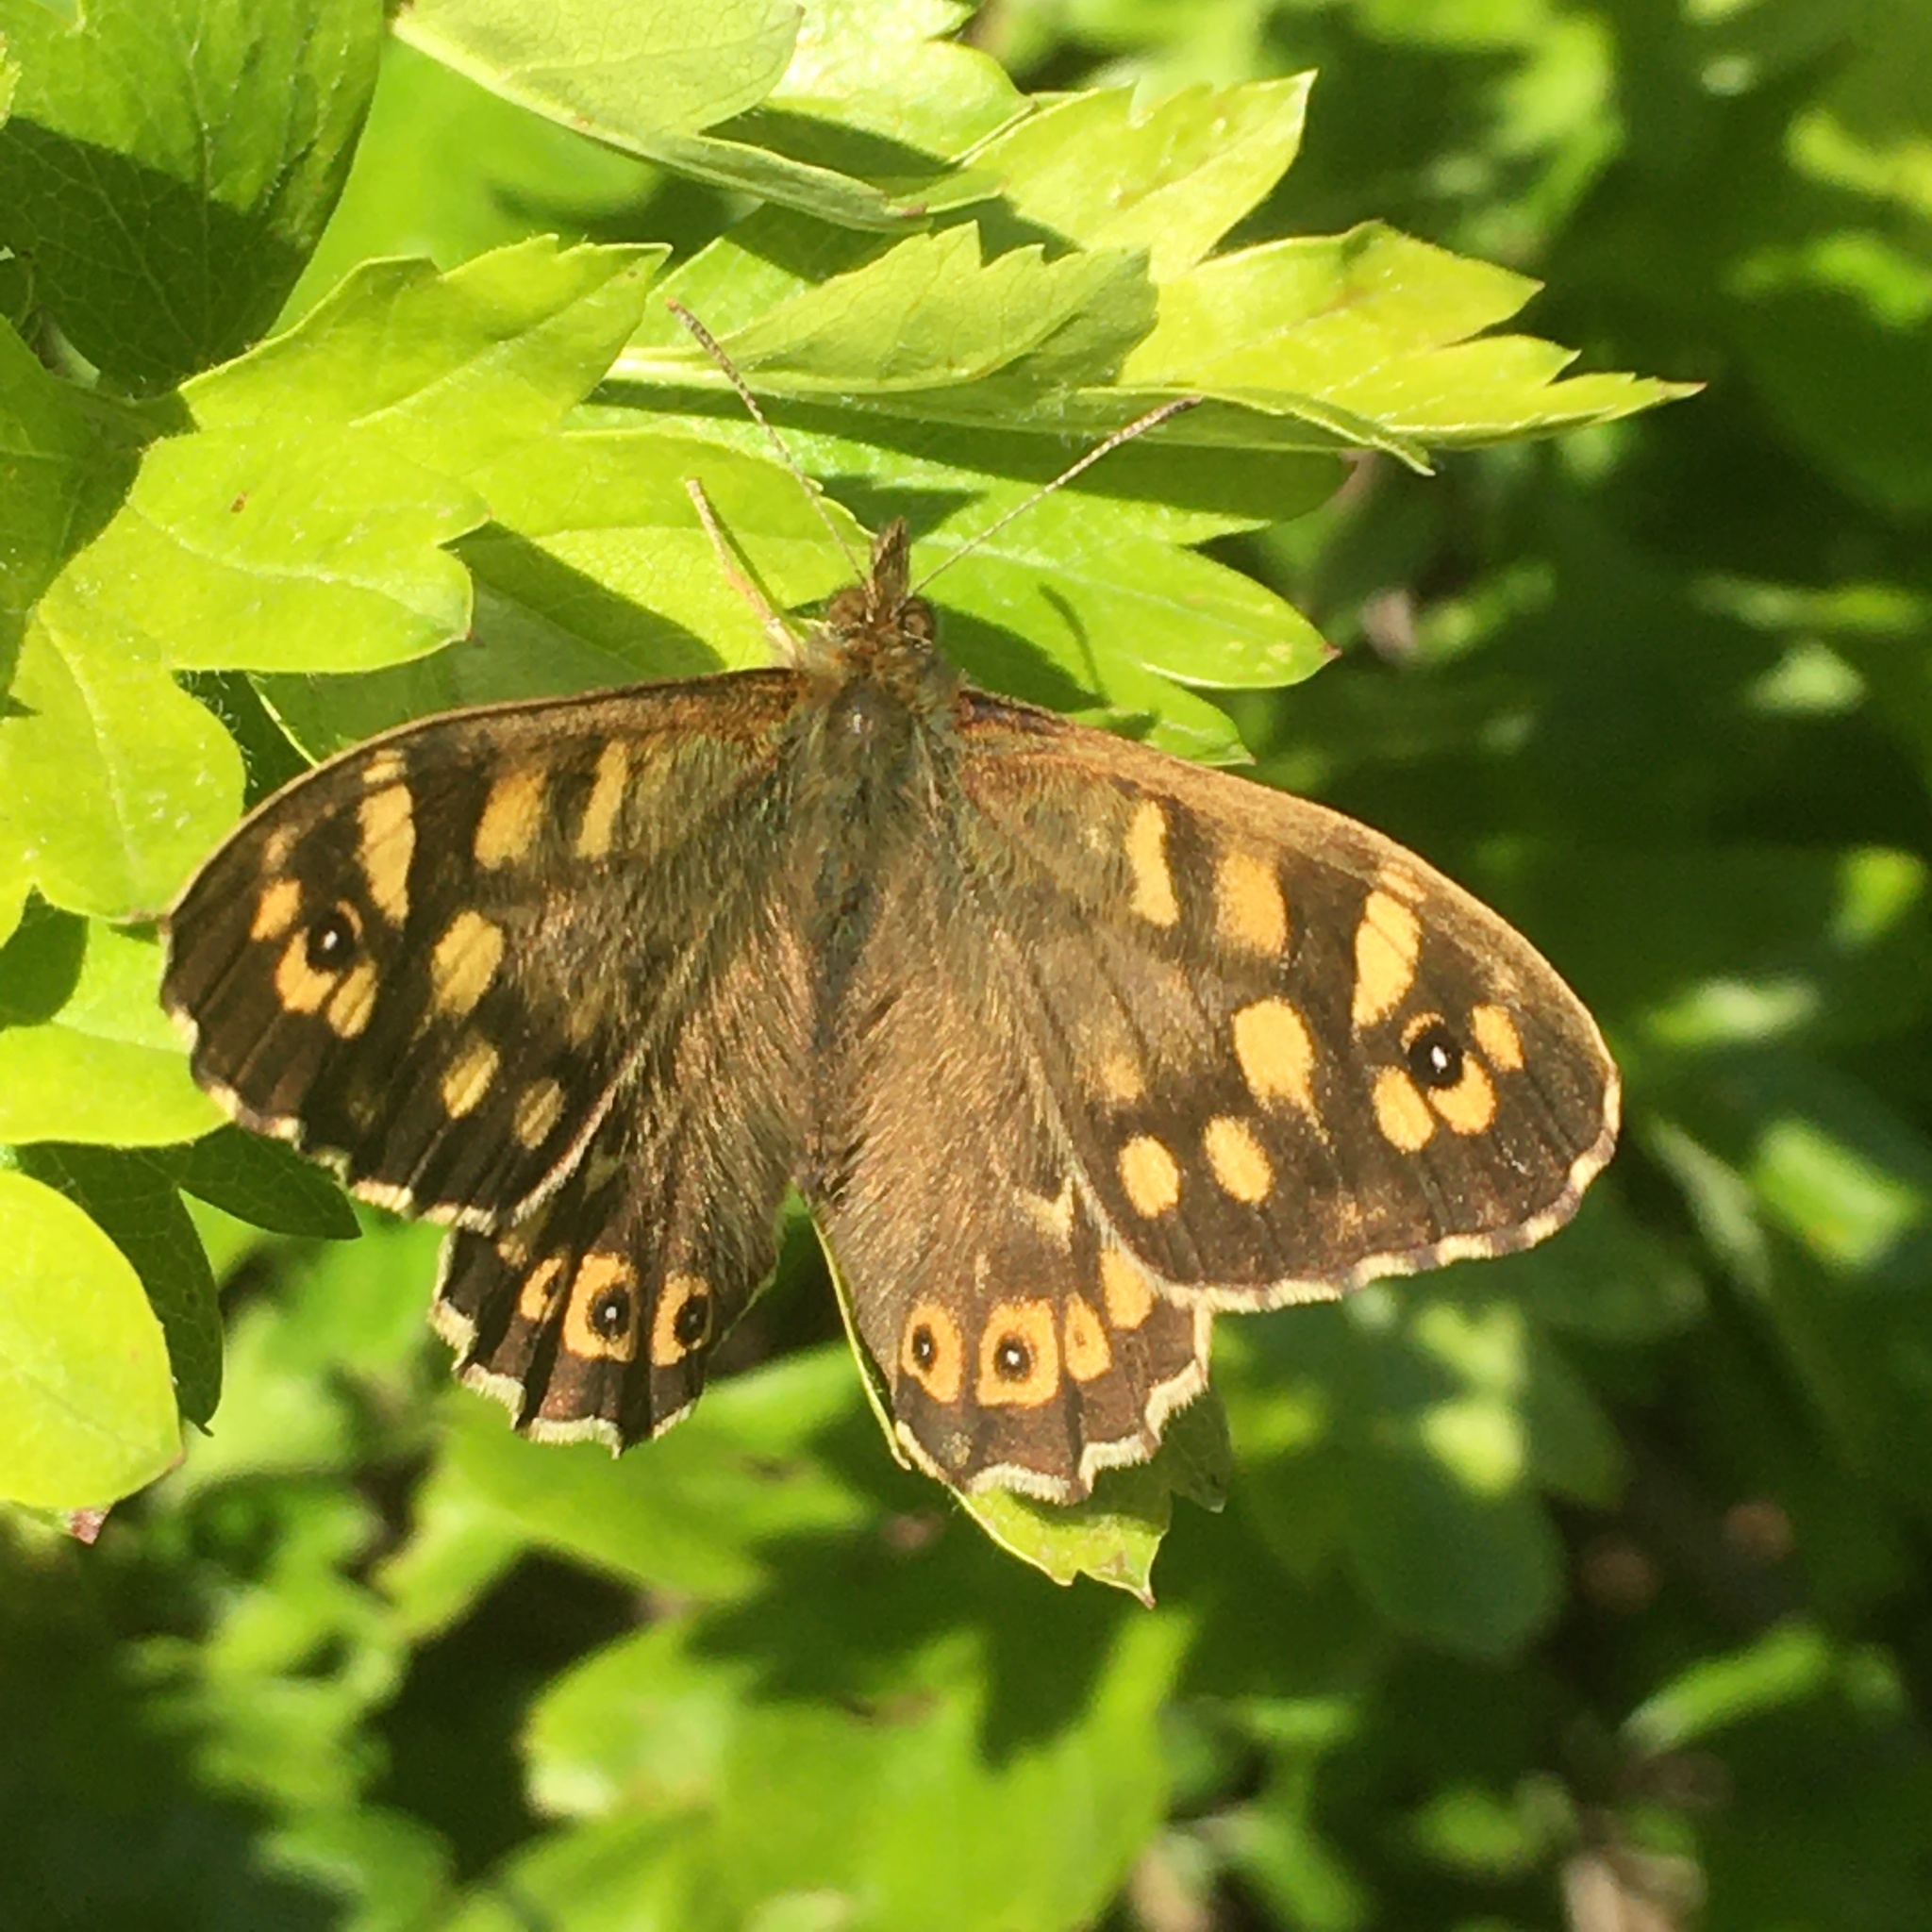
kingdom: Animalia
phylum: Arthropoda
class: Insecta
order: Lepidoptera
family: Nymphalidae
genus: Pararge
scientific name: Pararge aegeria
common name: Speckled wood
